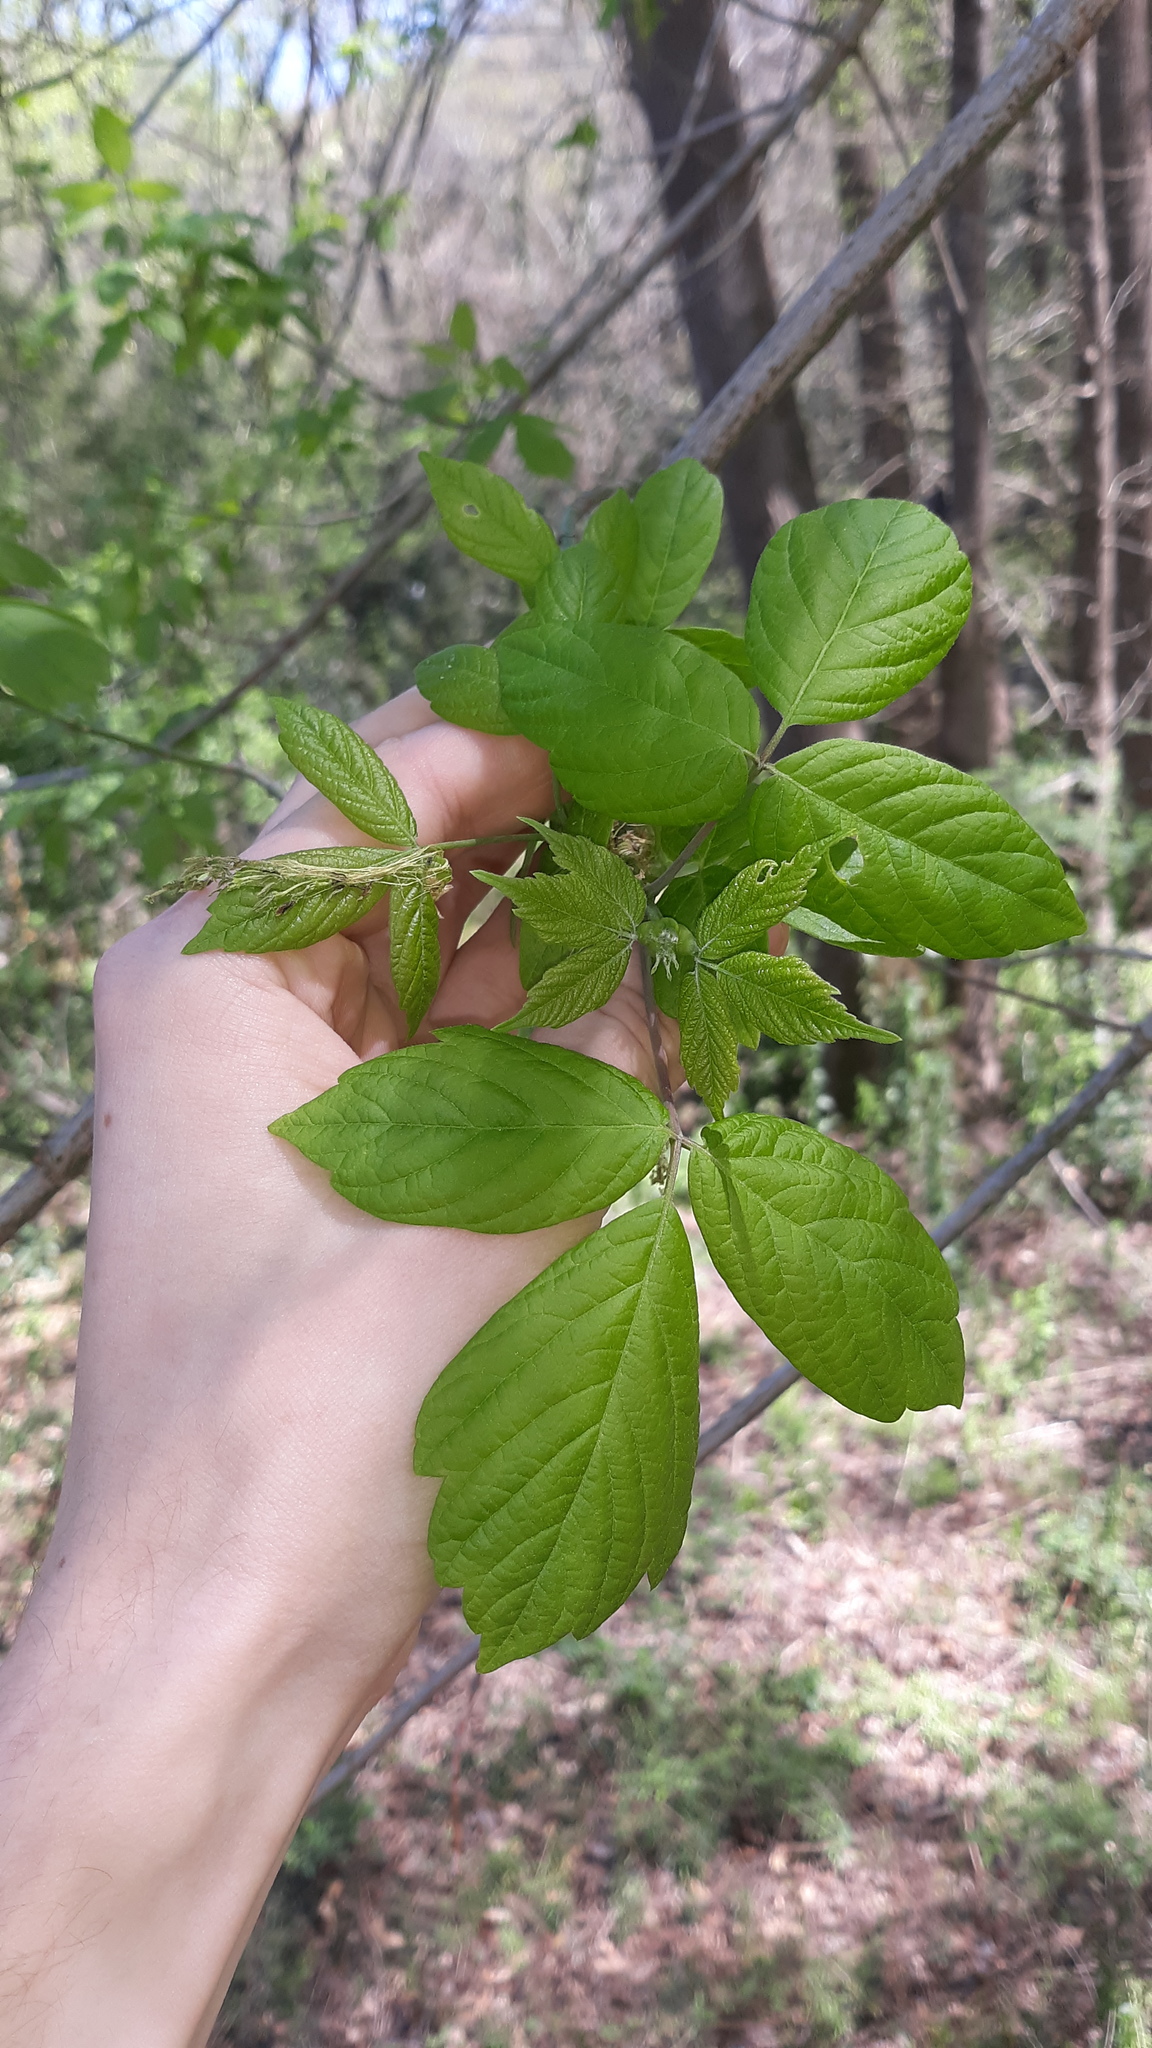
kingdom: Plantae
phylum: Tracheophyta
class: Magnoliopsida
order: Sapindales
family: Sapindaceae
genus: Acer
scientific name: Acer negundo
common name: Ashleaf maple
